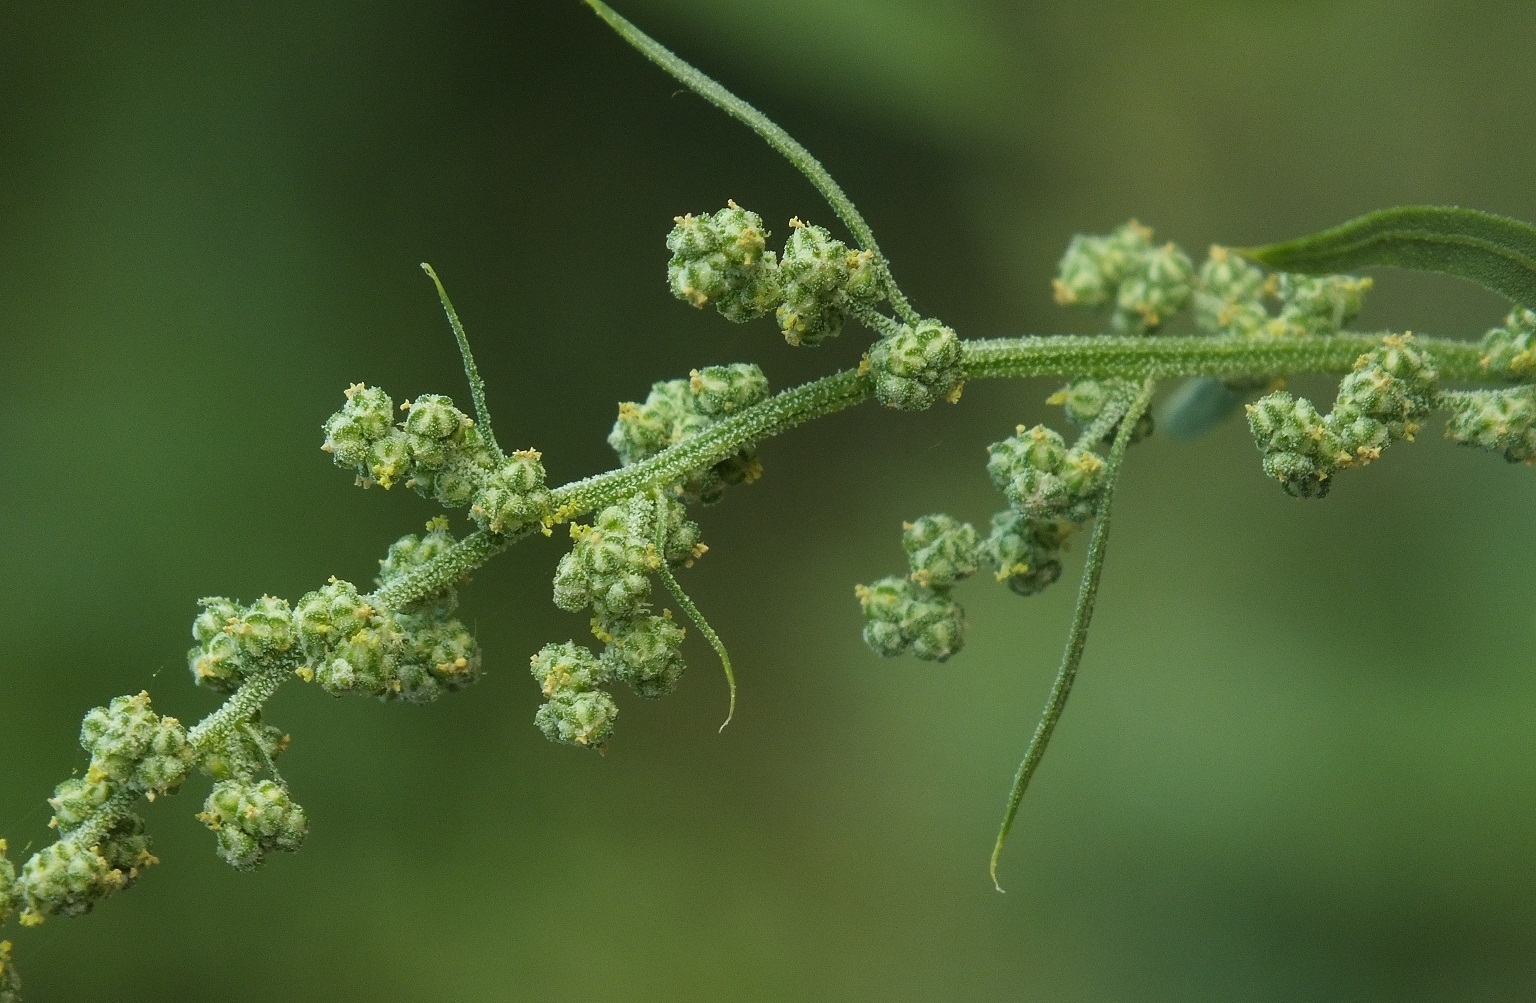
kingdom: Plantae
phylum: Tracheophyta
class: Magnoliopsida
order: Caryophyllales
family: Amaranthaceae
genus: Chenopodium
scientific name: Chenopodium album
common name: Fat-hen
